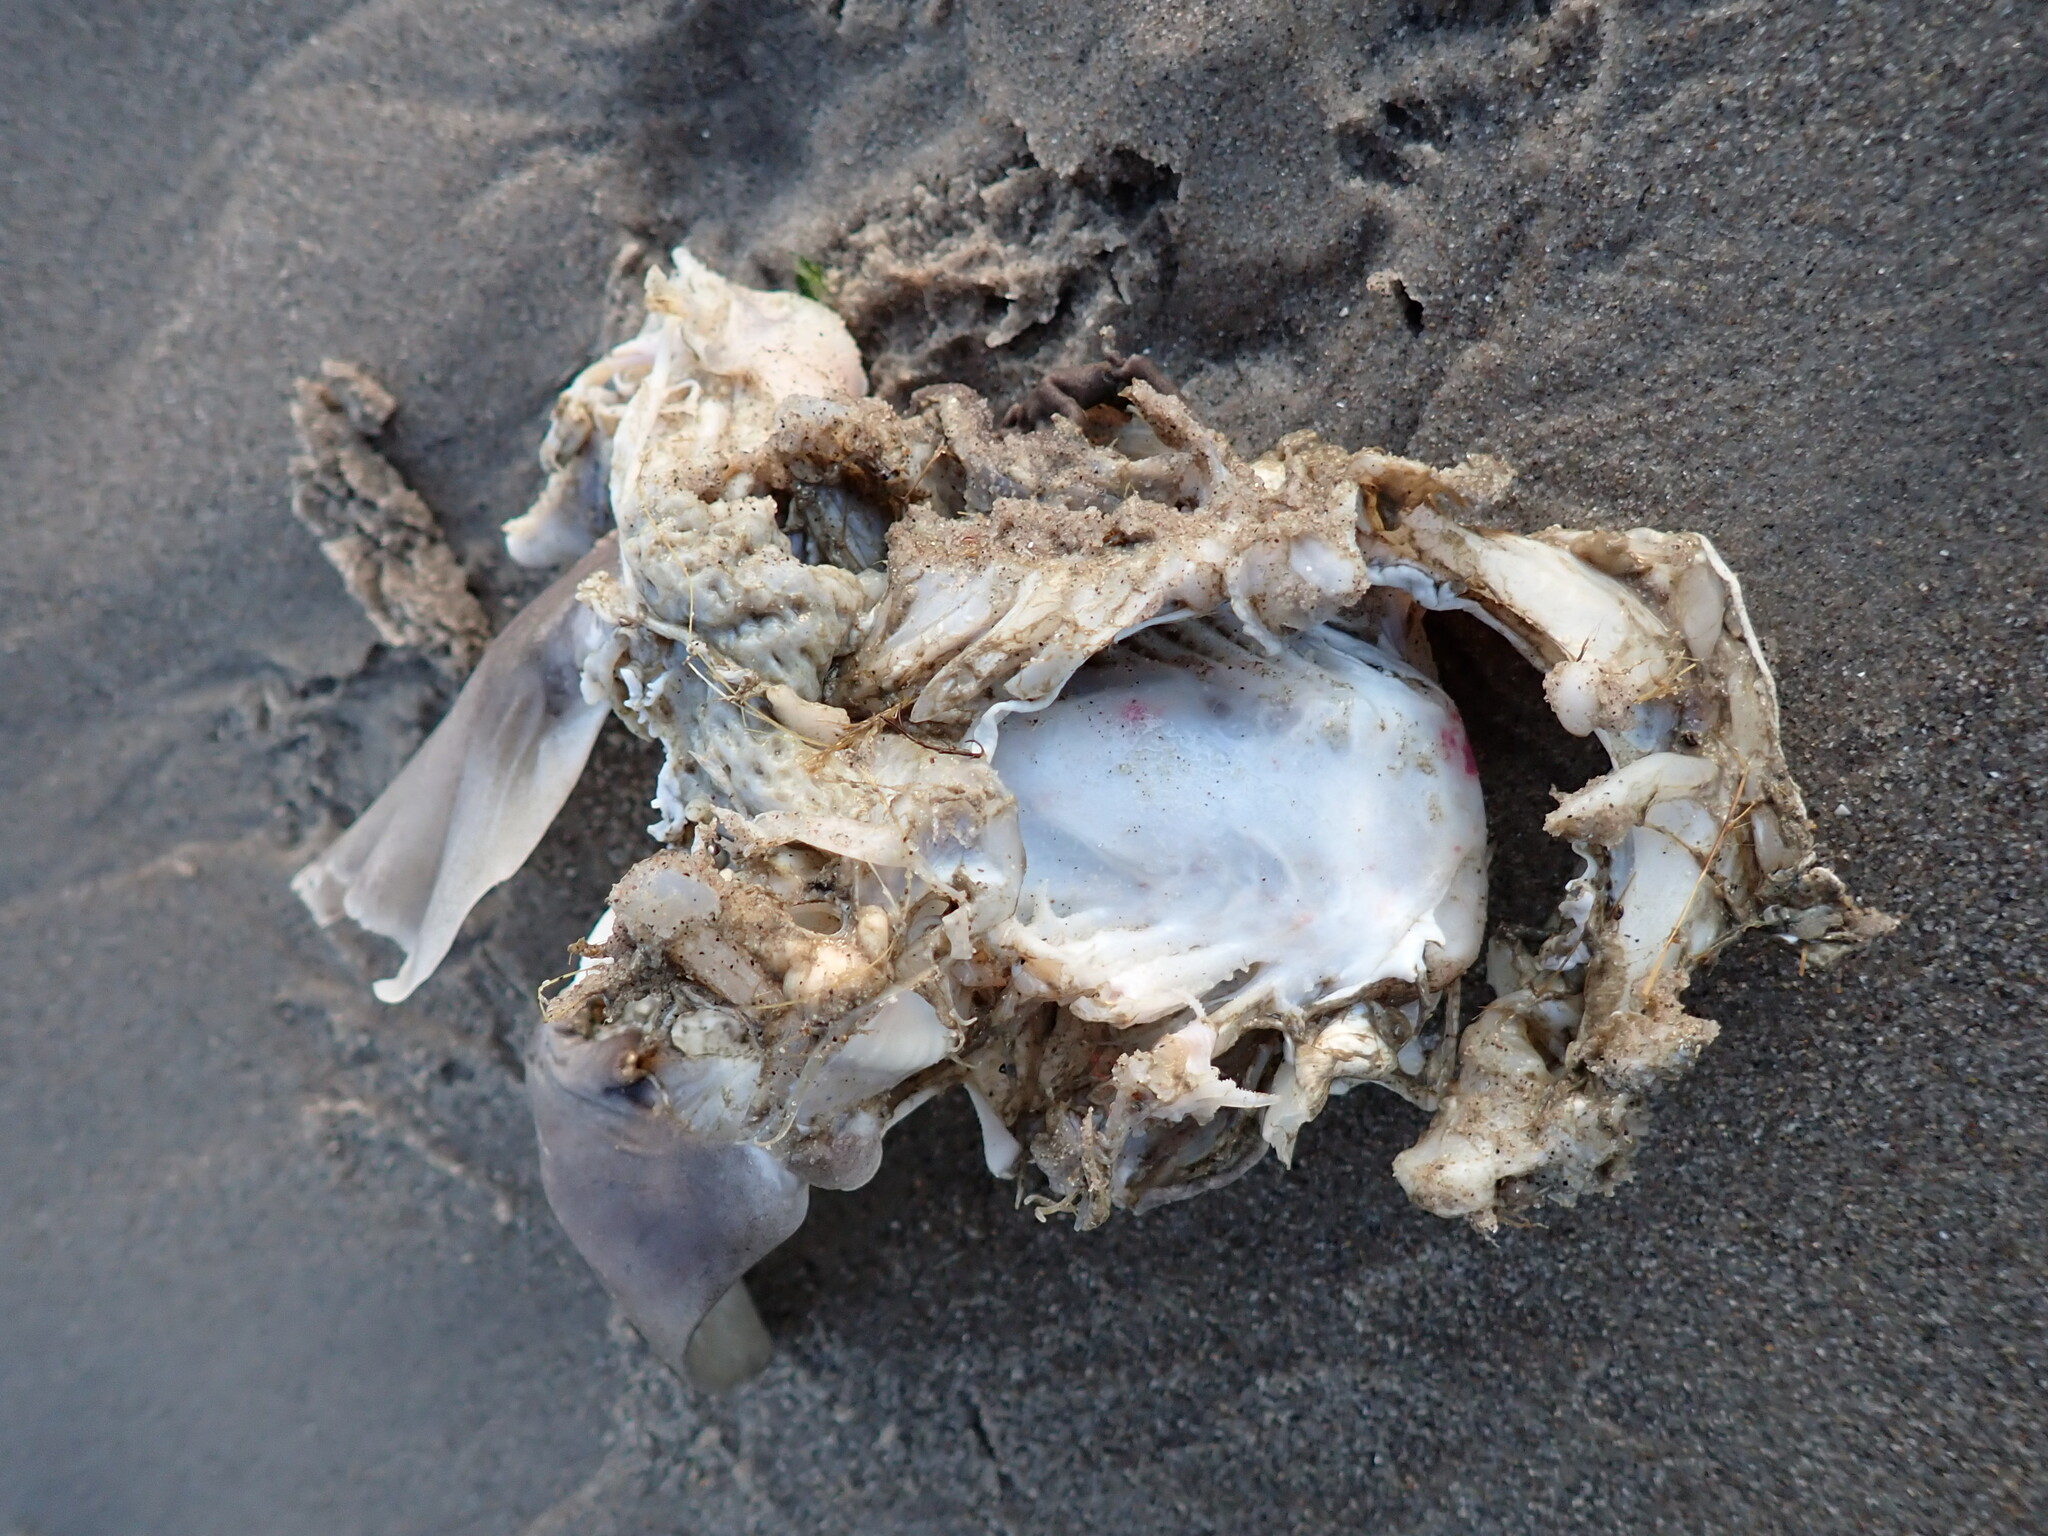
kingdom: Animalia
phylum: Chordata
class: Elasmobranchii
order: Squaliformes
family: Squalidae
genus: Squalus
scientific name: Squalus acanthias
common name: Spurdog
